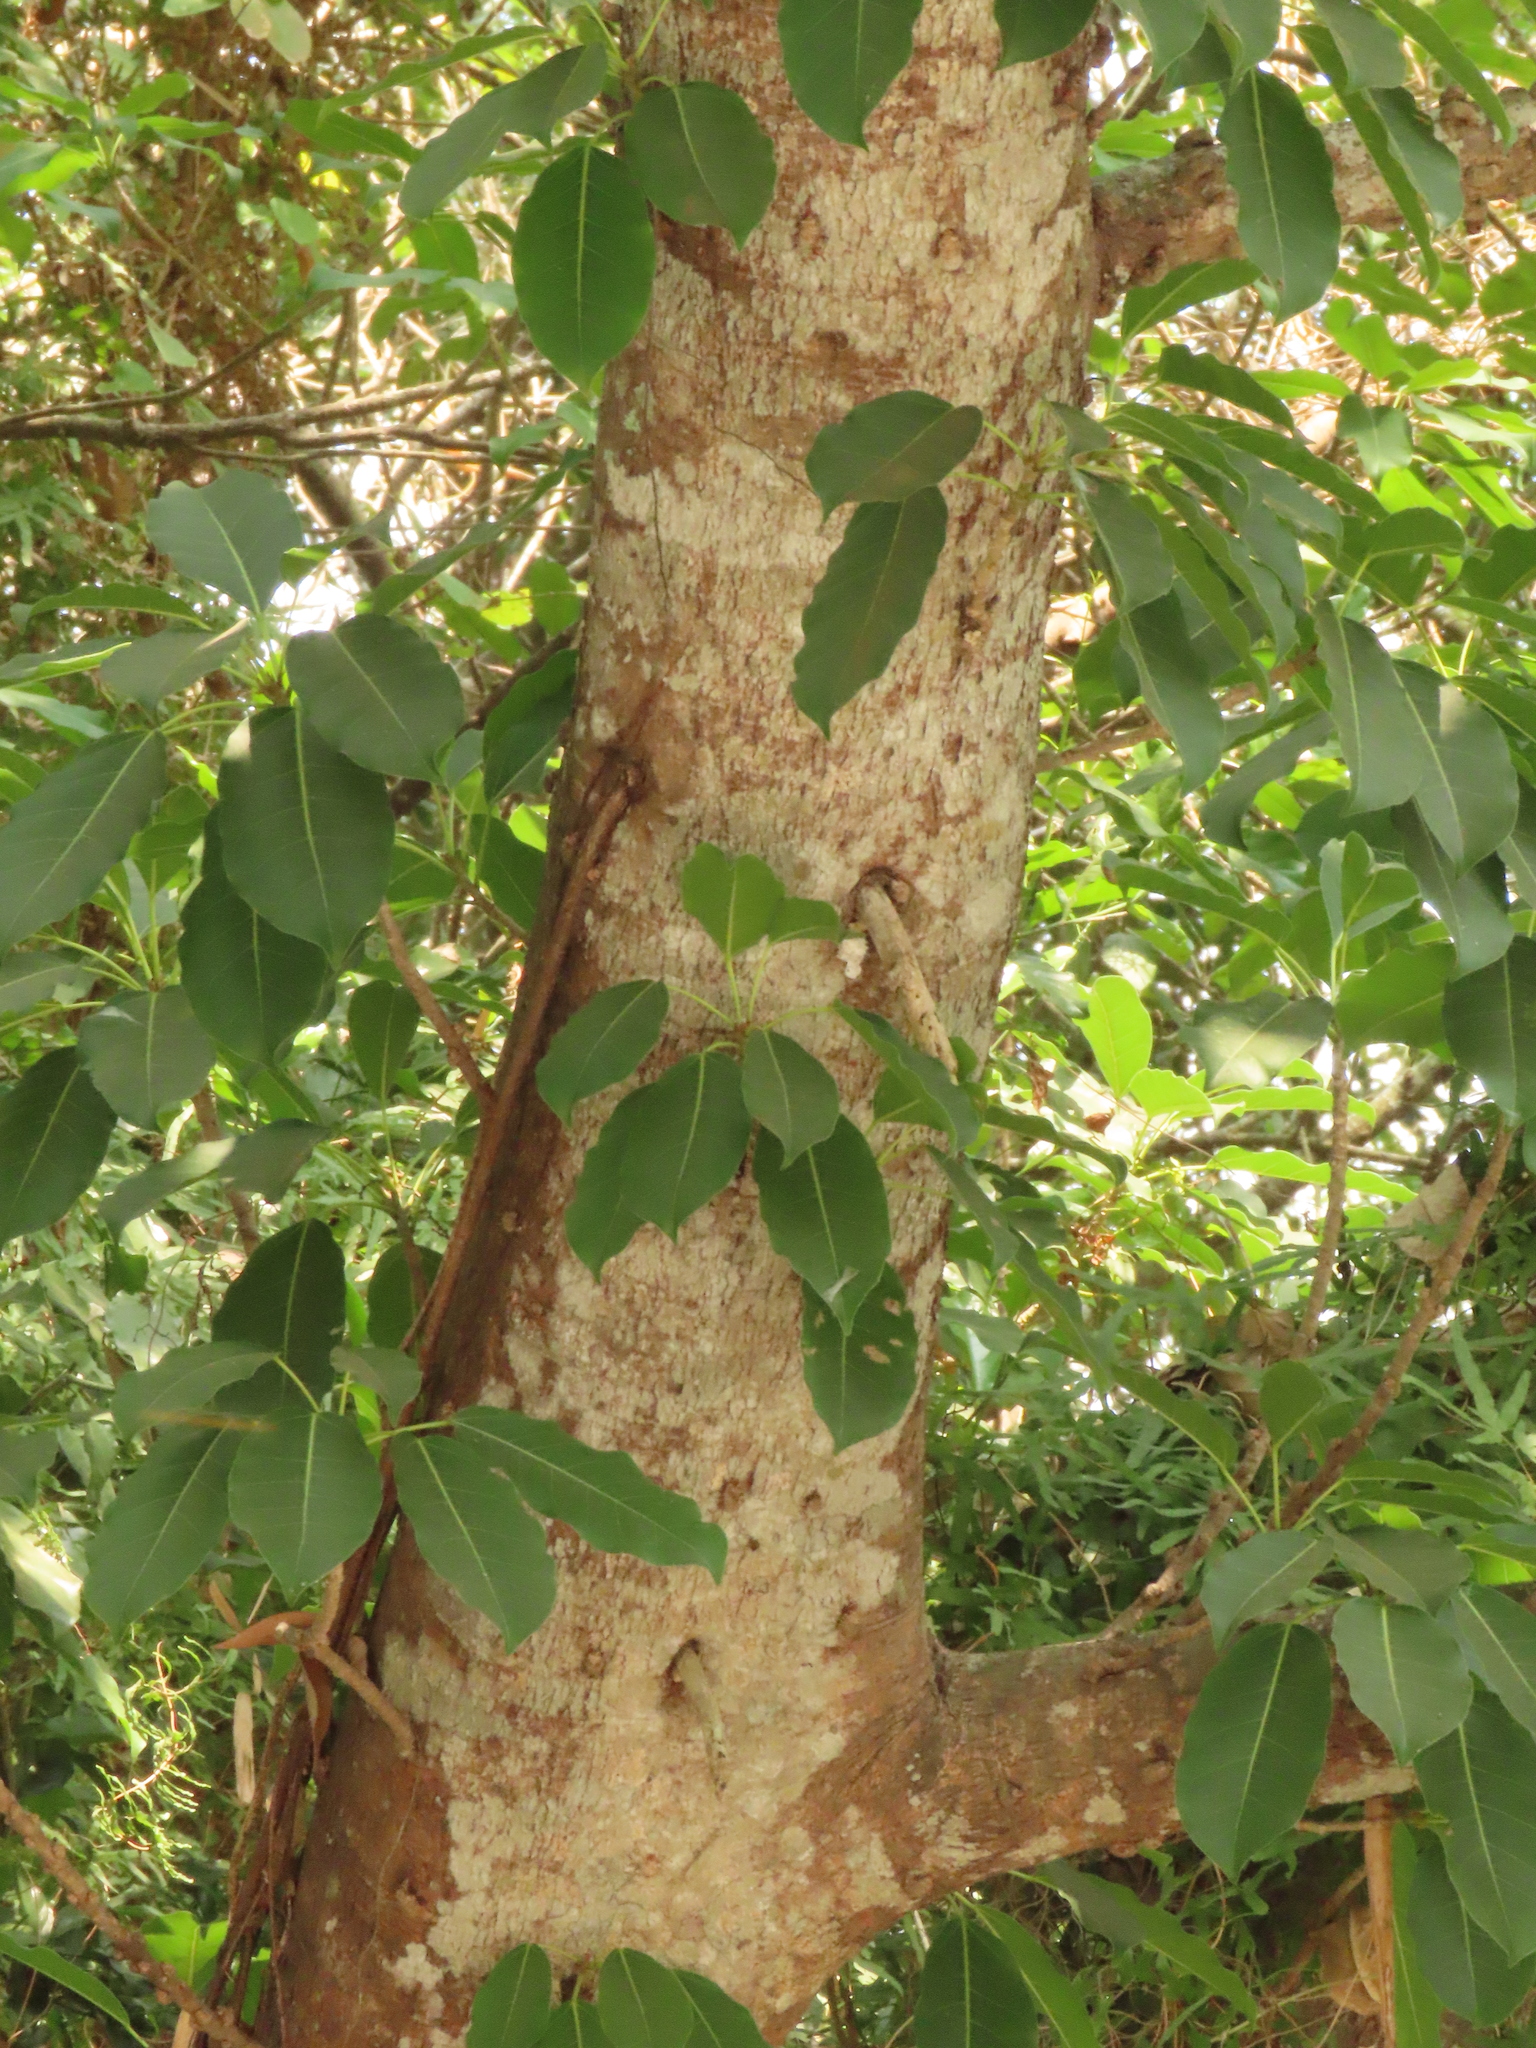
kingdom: Plantae
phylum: Tracheophyta
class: Magnoliopsida
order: Rosales
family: Moraceae
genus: Ficus
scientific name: Ficus subpisocarpa
